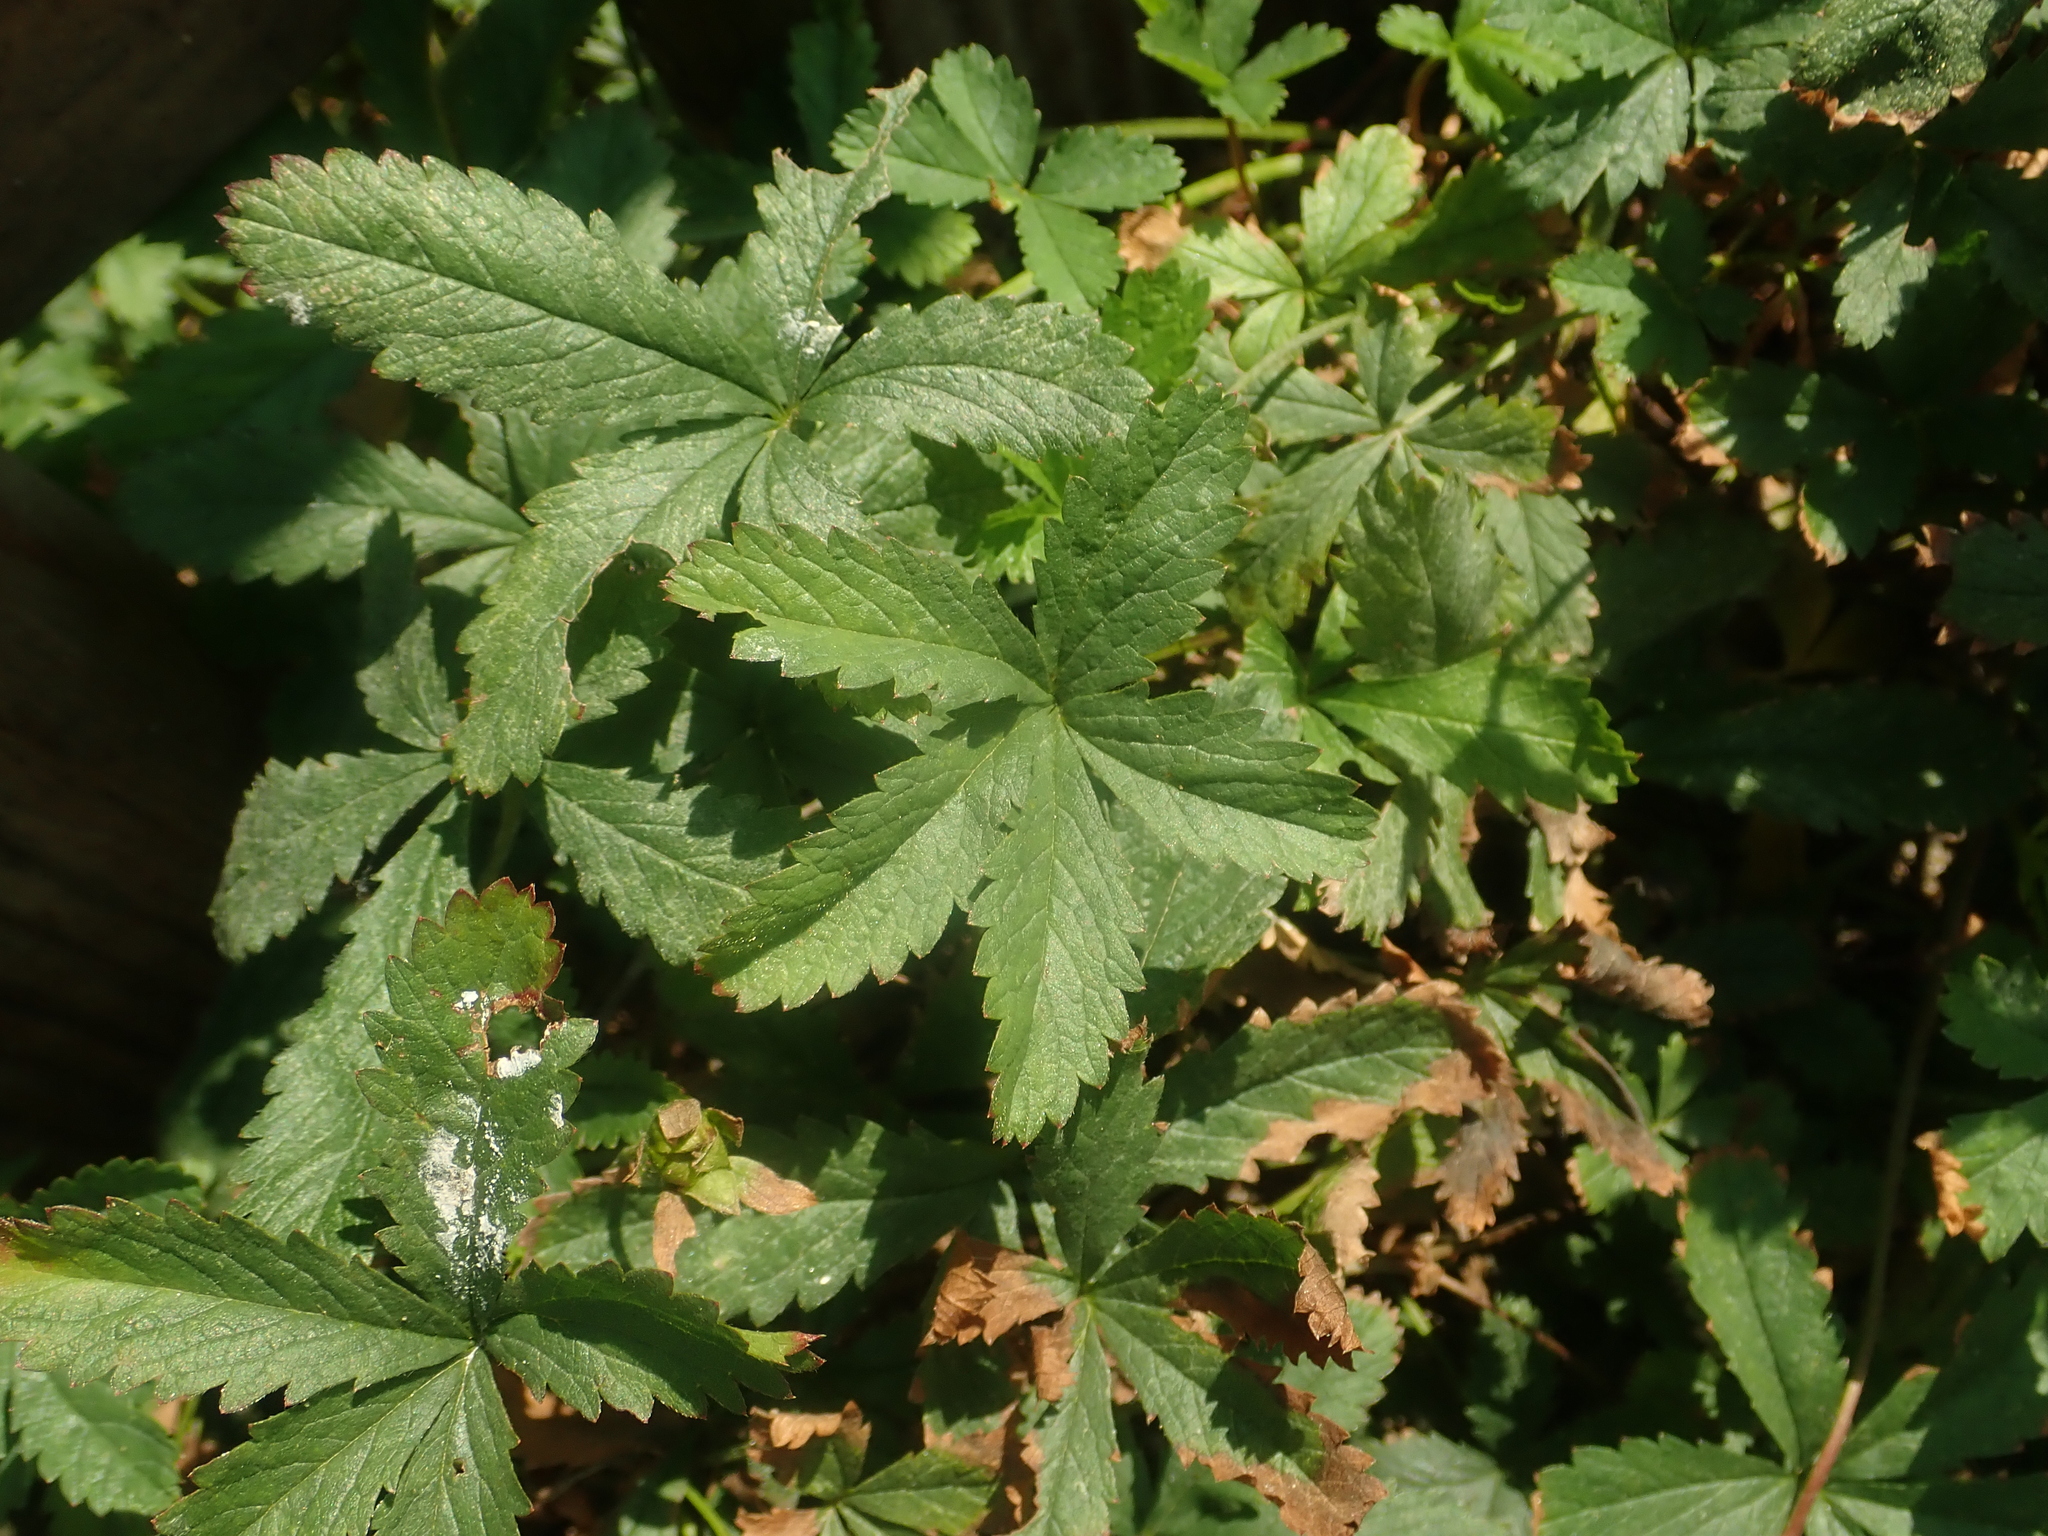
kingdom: Plantae
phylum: Tracheophyta
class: Magnoliopsida
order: Rosales
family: Rosaceae
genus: Potentilla
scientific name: Potentilla reptans
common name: Creeping cinquefoil
